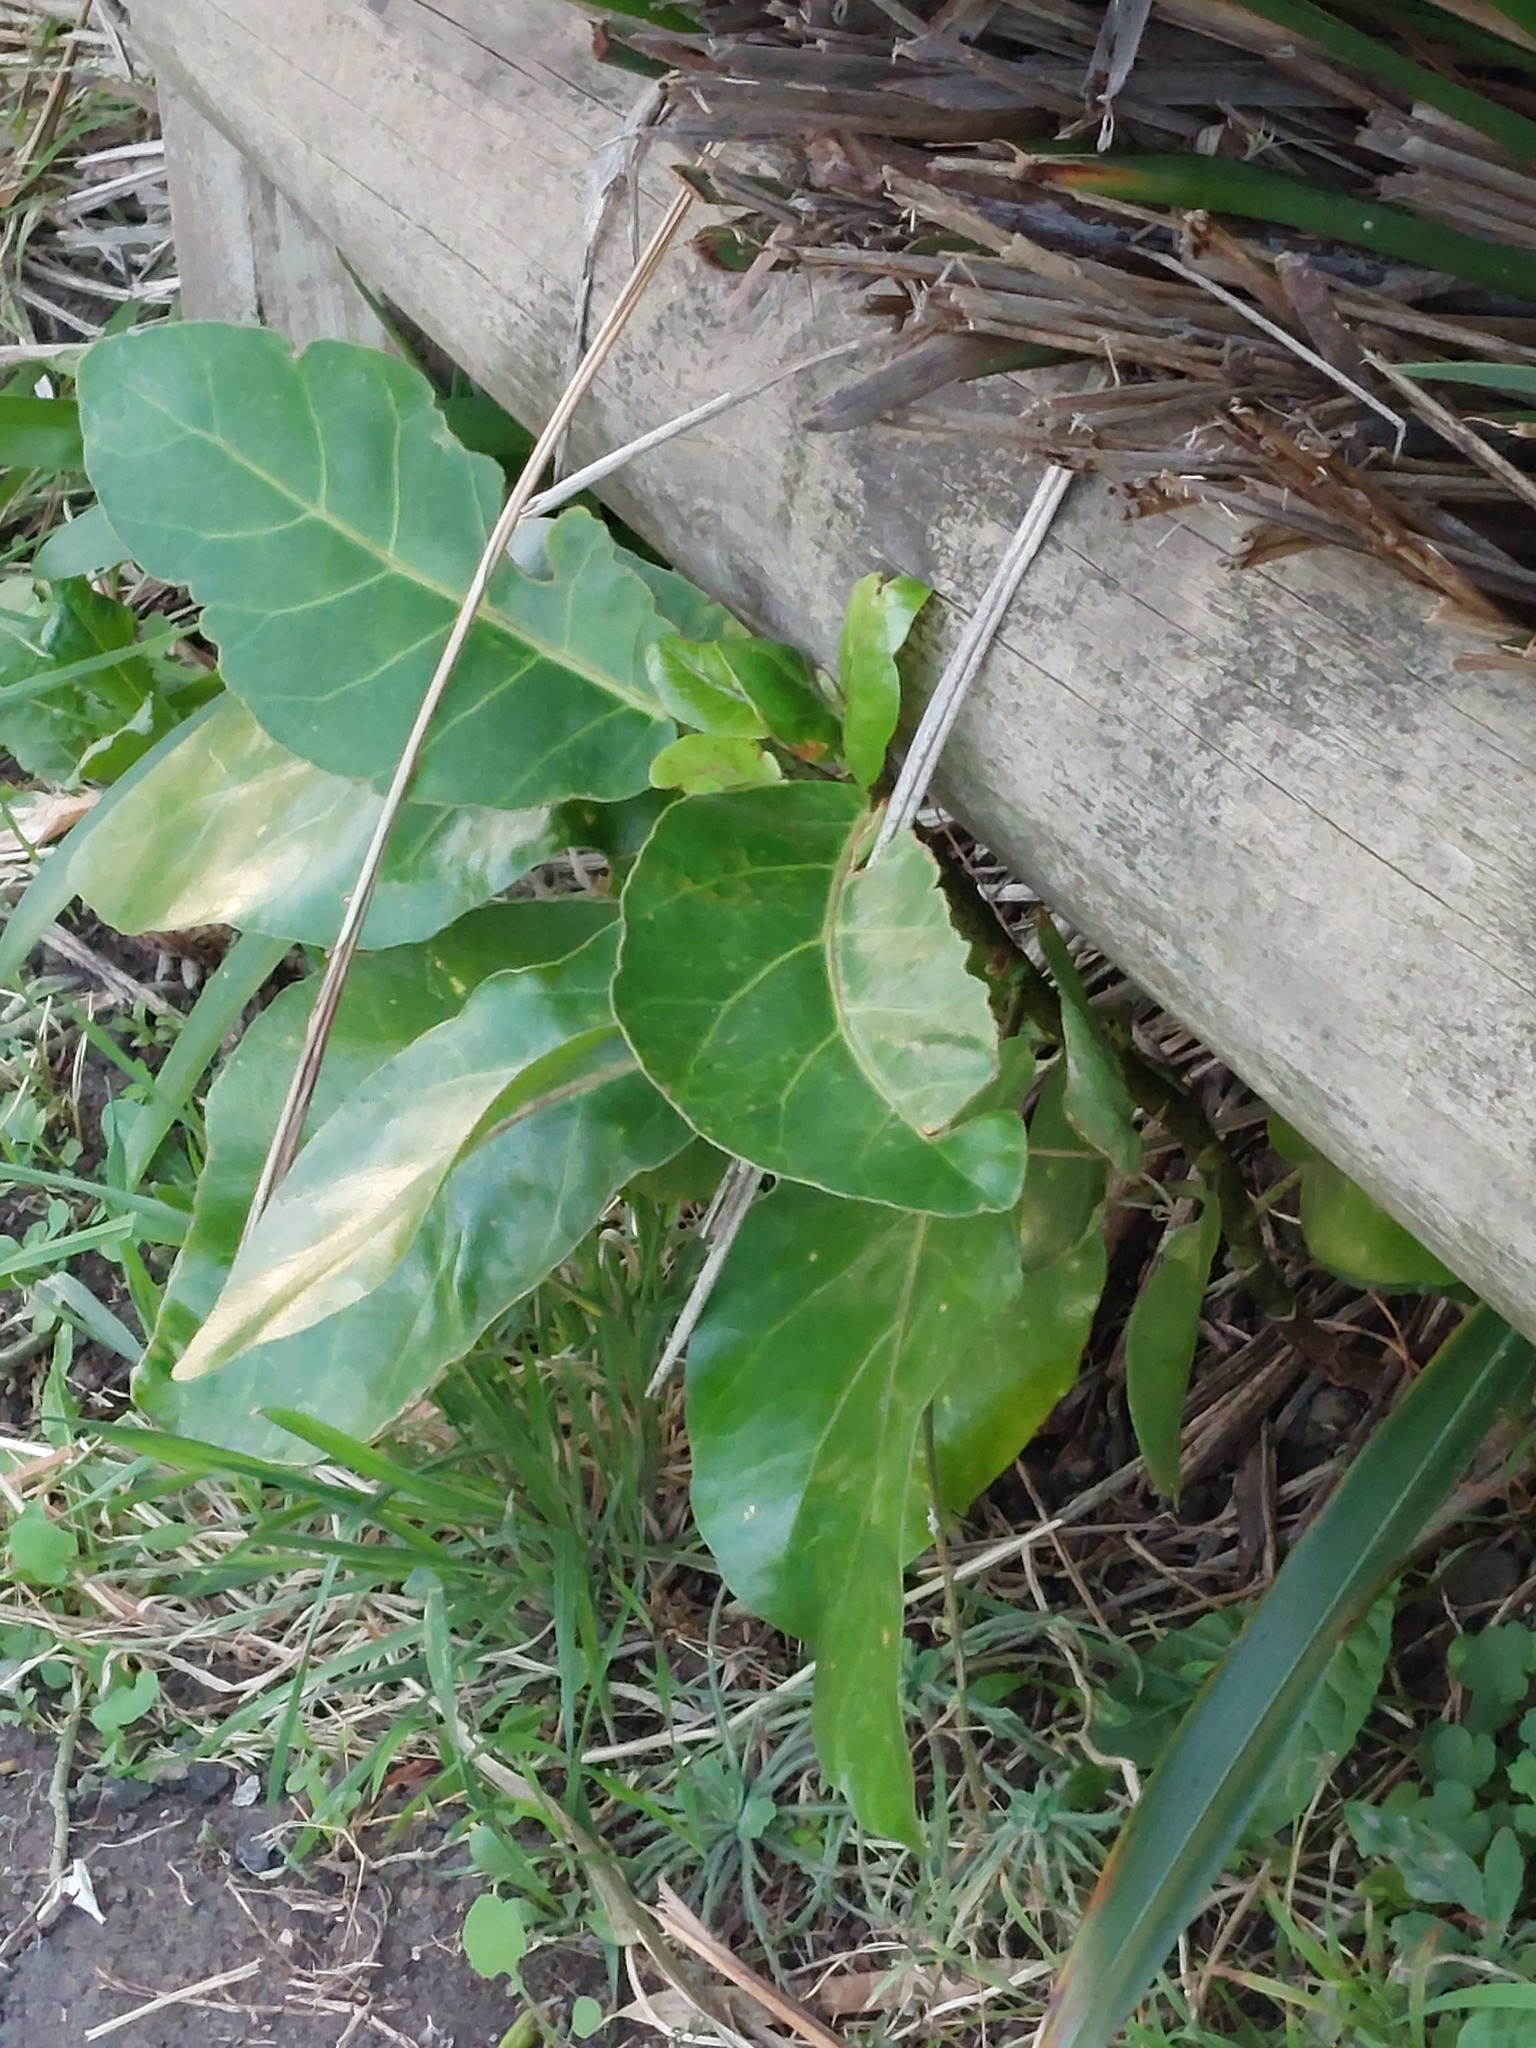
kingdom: Plantae
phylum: Tracheophyta
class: Magnoliopsida
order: Apiales
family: Araliaceae
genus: Meryta
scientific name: Meryta sinclairii
